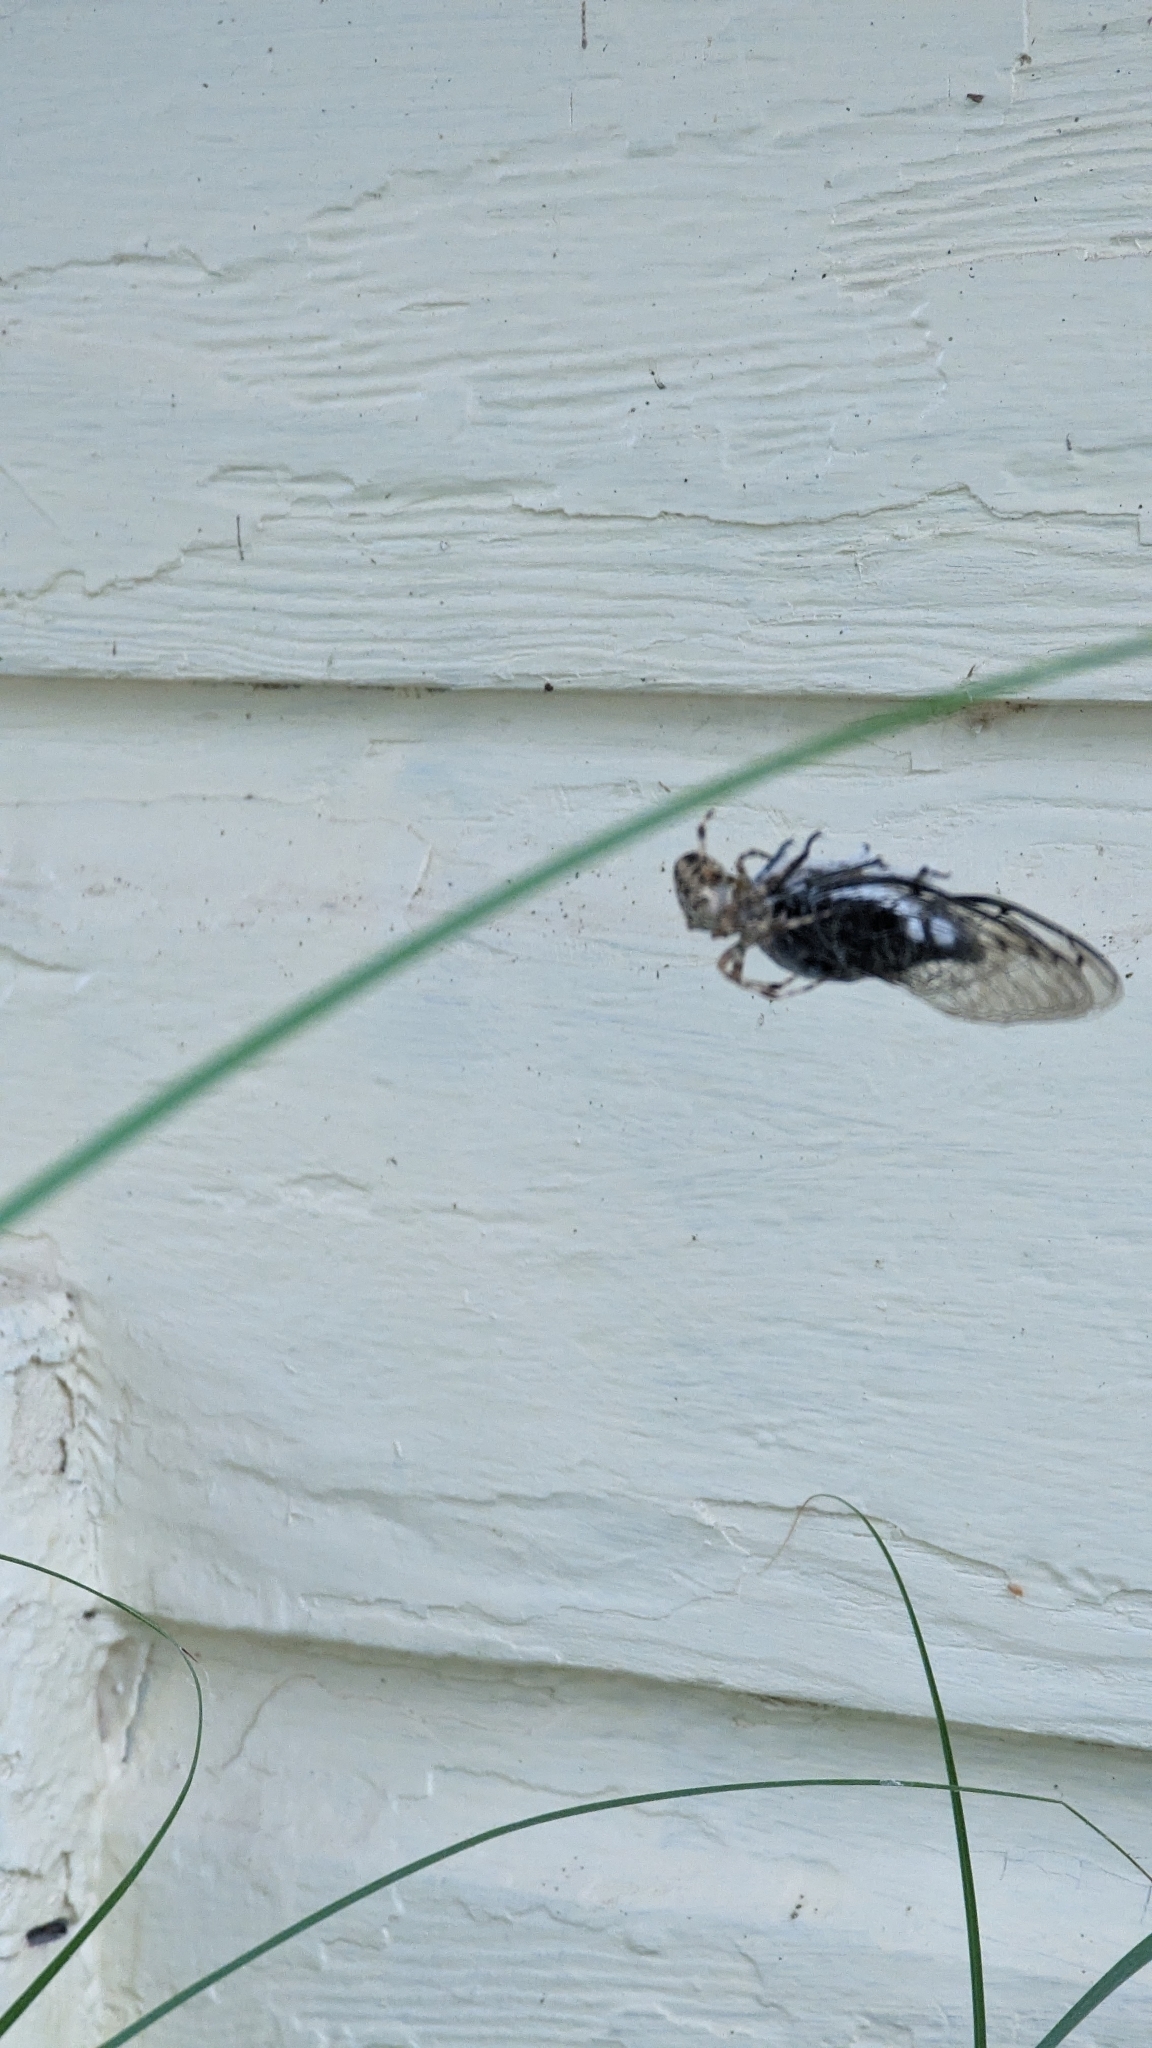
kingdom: Animalia
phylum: Arthropoda
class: Arachnida
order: Araneae
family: Araneidae
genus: Araneus
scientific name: Araneus diadematus
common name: Cross orbweaver
